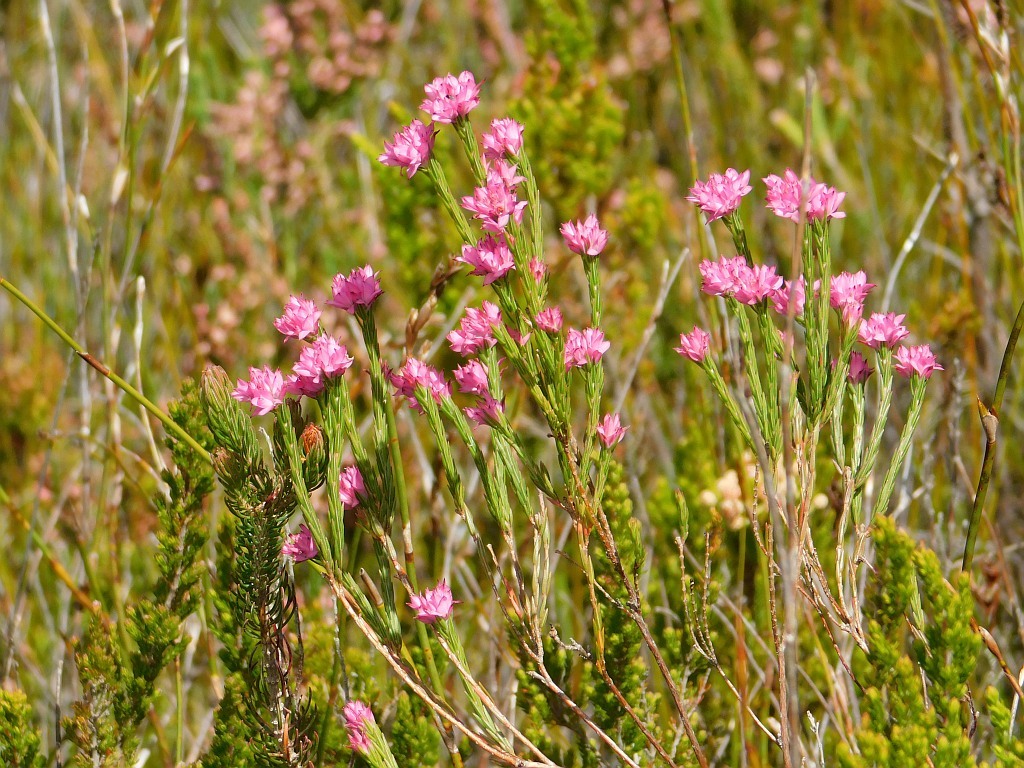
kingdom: Plantae
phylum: Tracheophyta
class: Magnoliopsida
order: Ericales
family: Ericaceae
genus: Erica
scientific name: Erica corifolia
